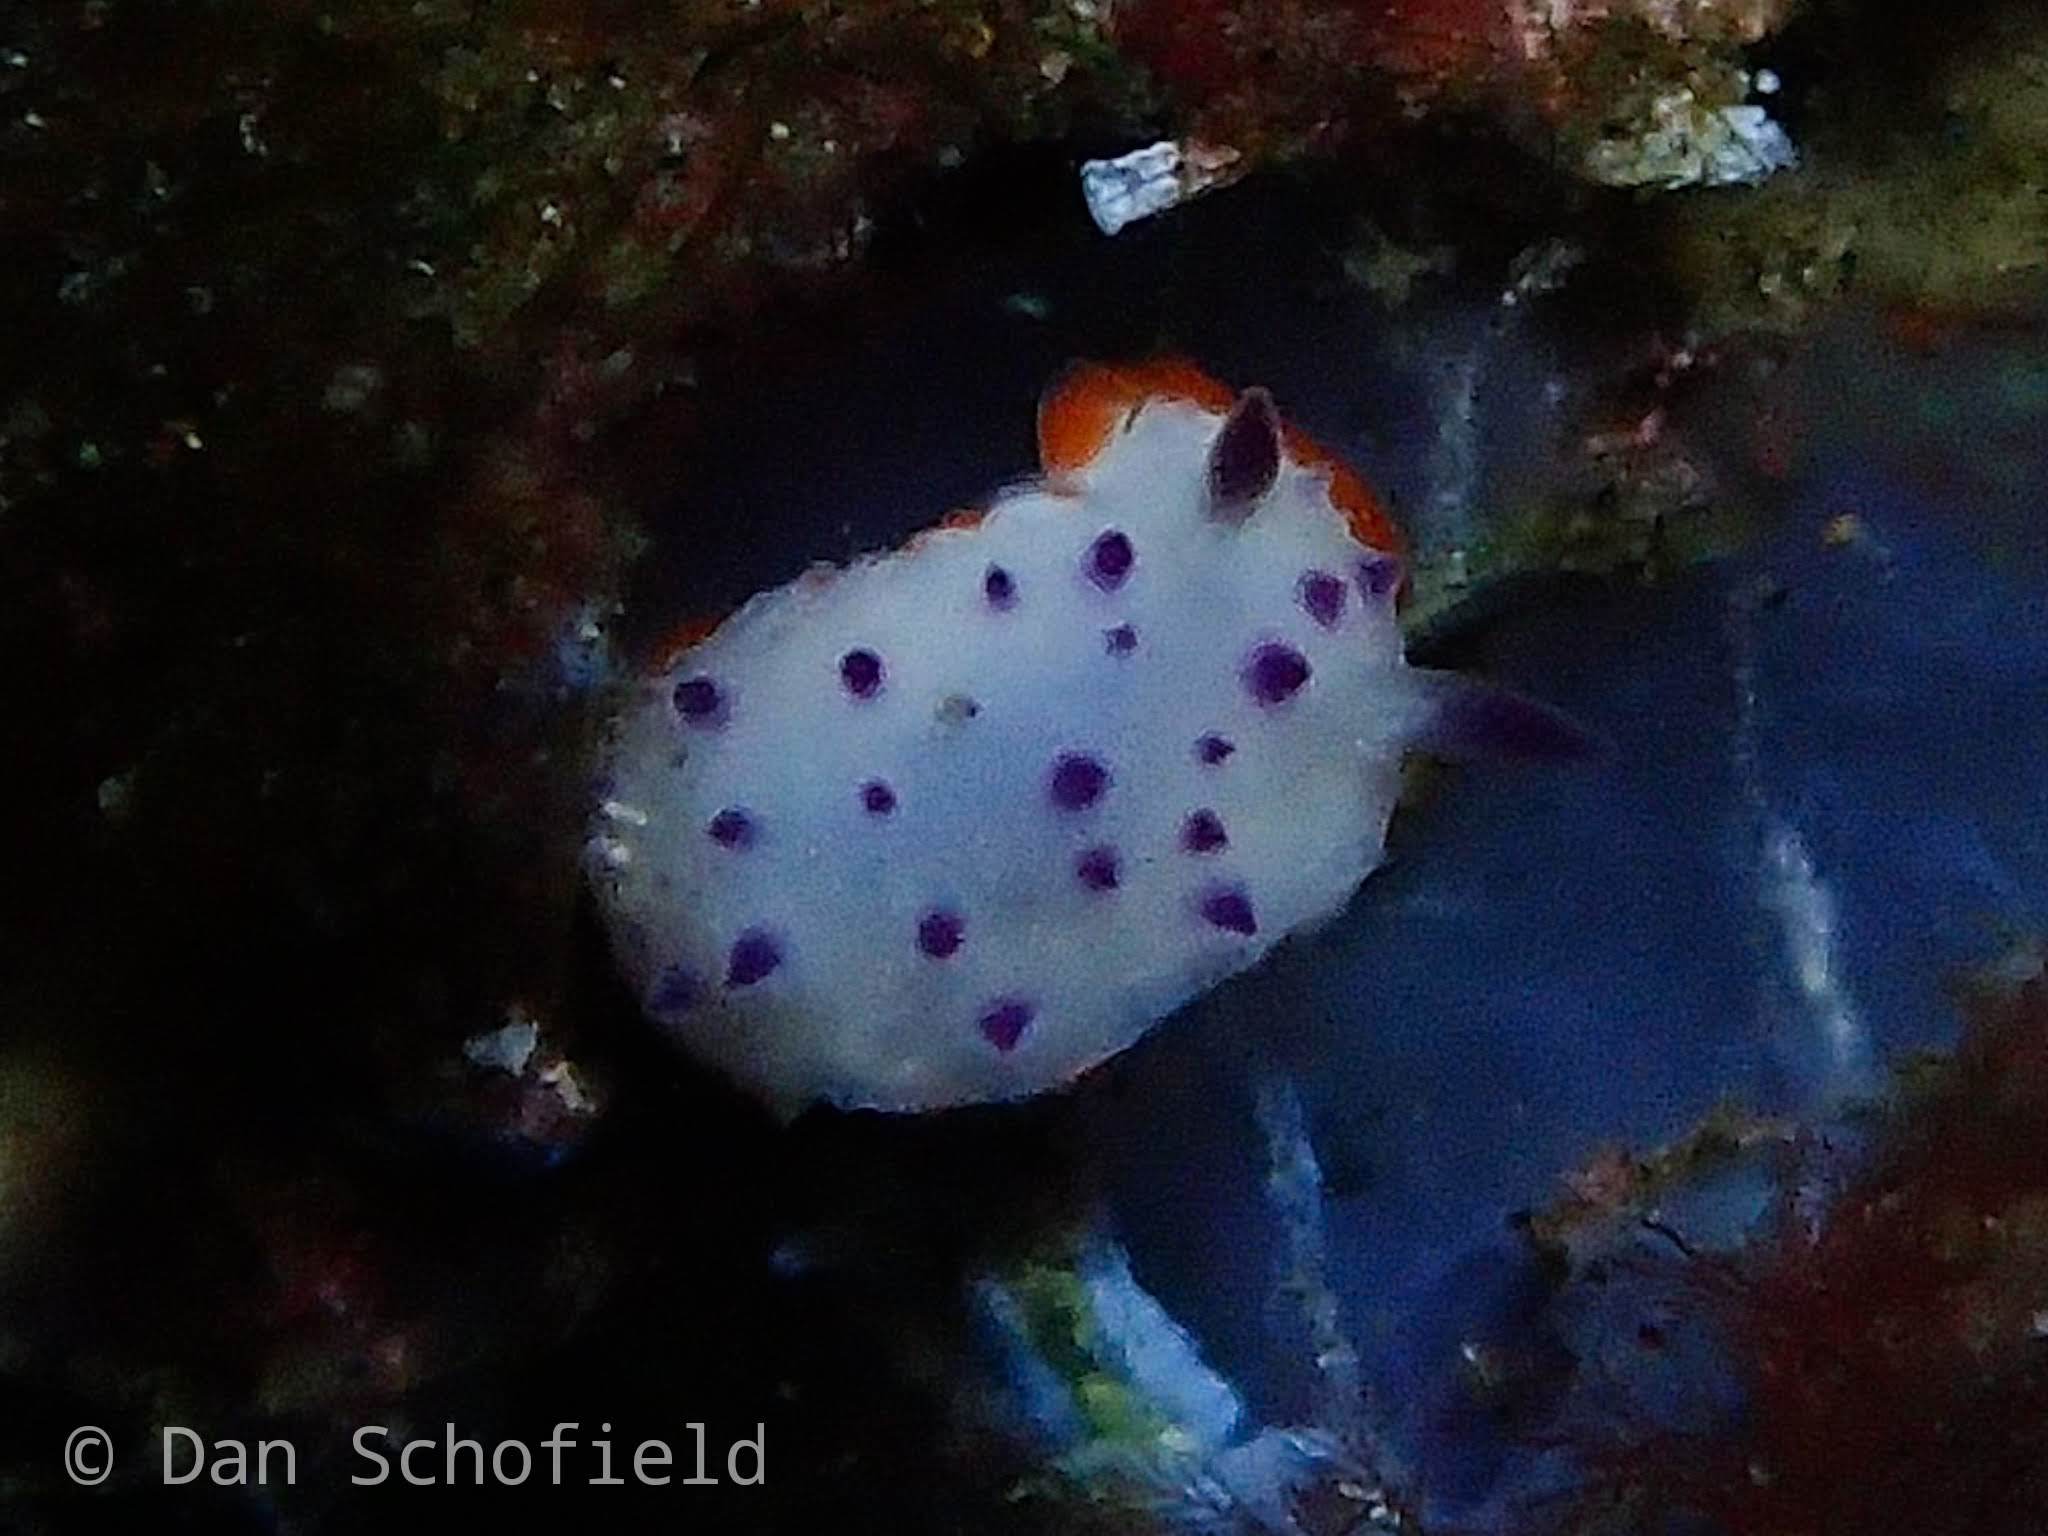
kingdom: Animalia
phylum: Mollusca
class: Gastropoda
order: Nudibranchia
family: Chromodorididae
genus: Mexichromis
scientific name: Mexichromis multituberculata
